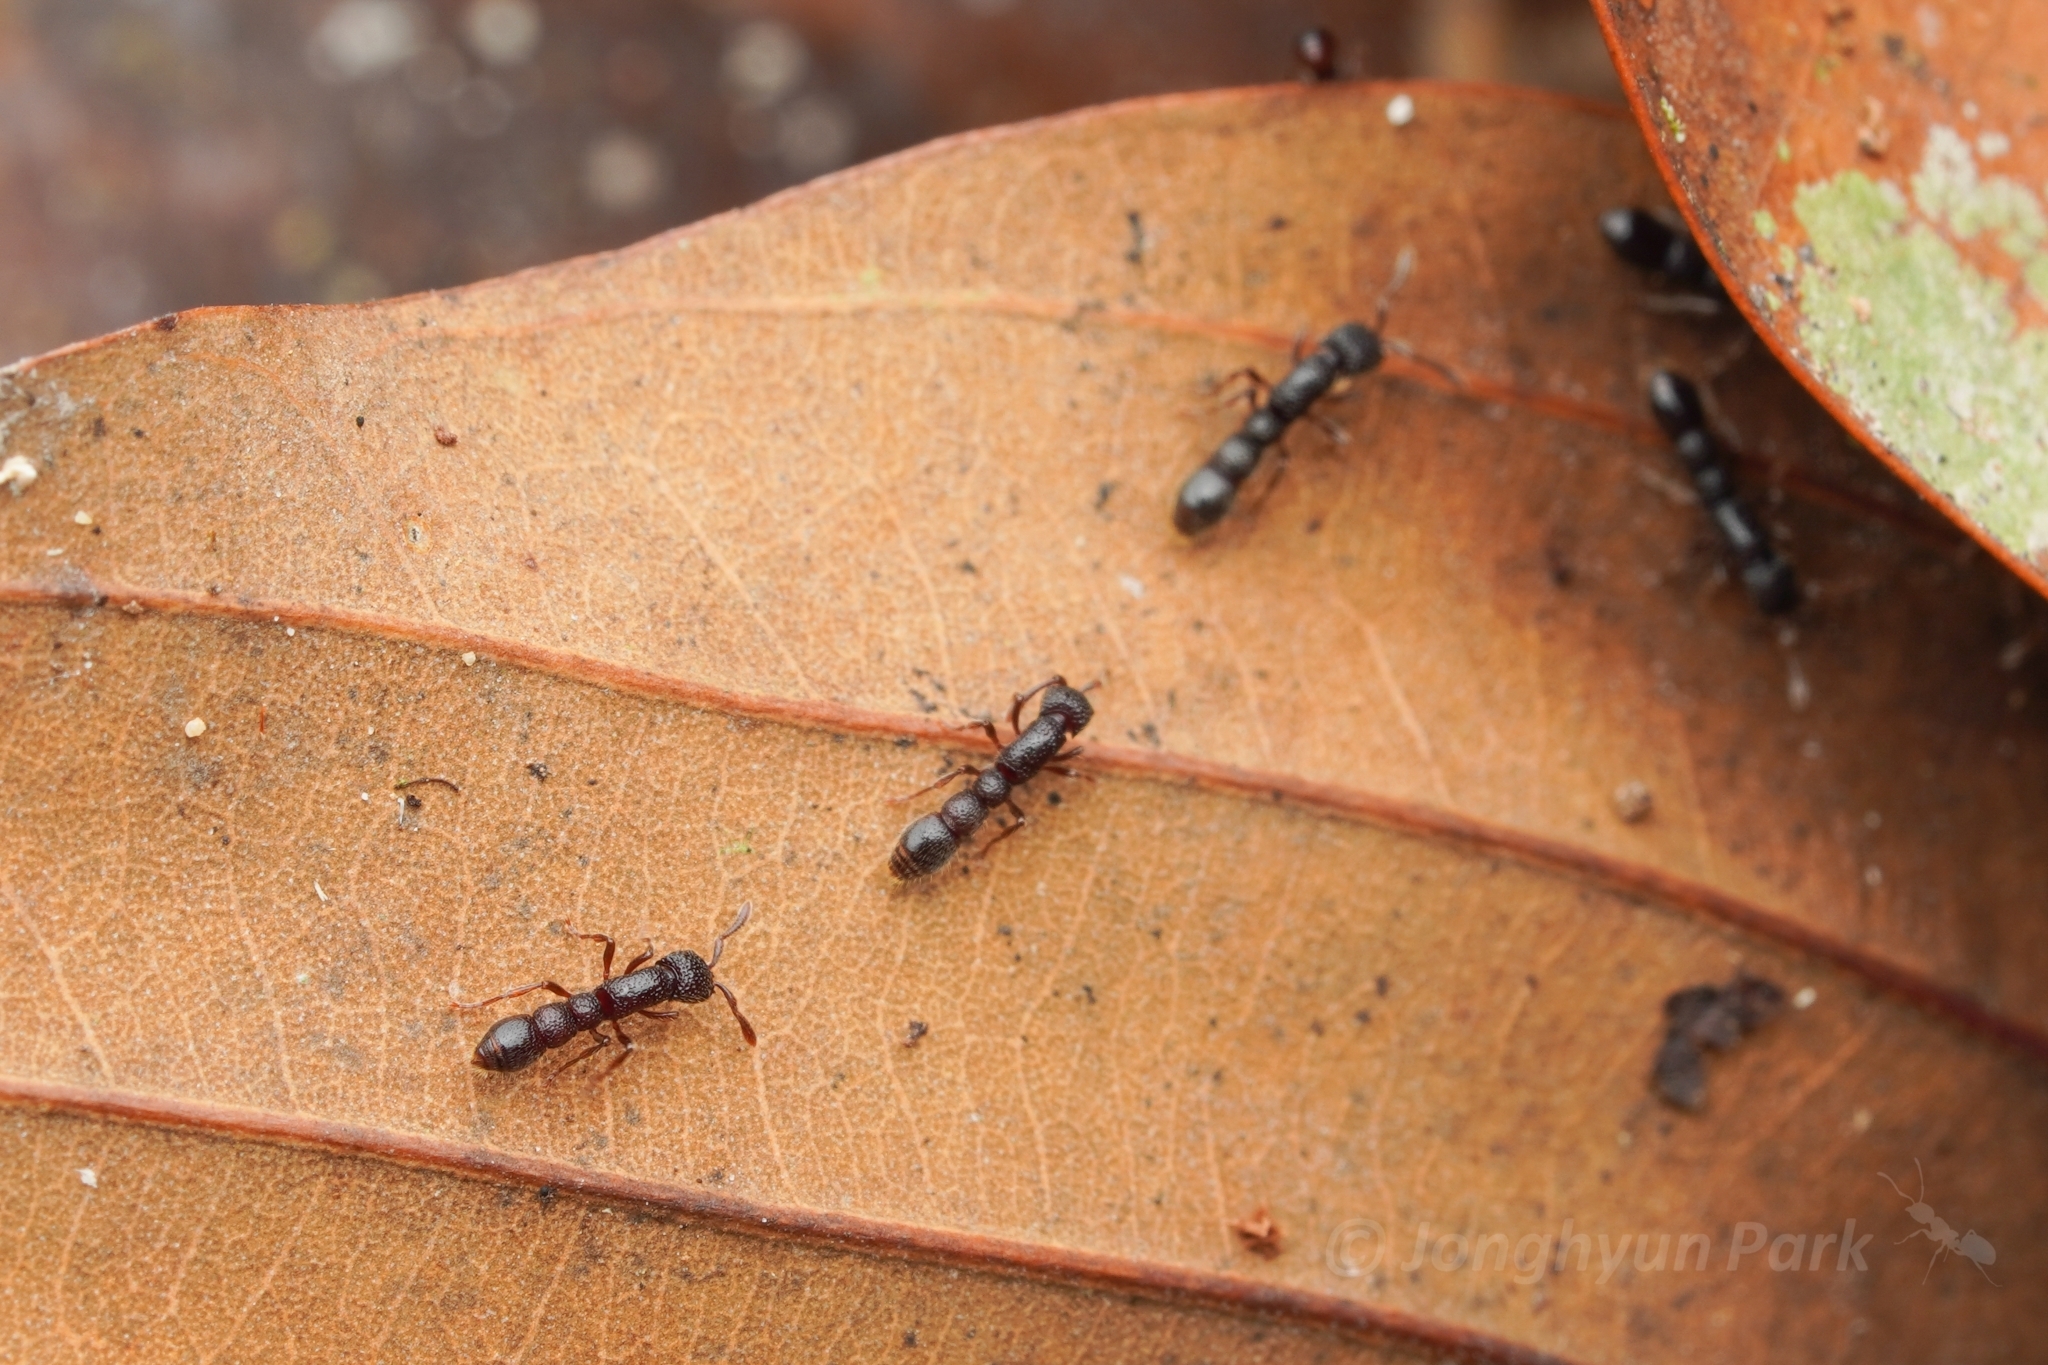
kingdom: Animalia
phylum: Arthropoda
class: Insecta
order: Hymenoptera
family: Formicidae
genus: Parasyscia
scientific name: Parasyscia
